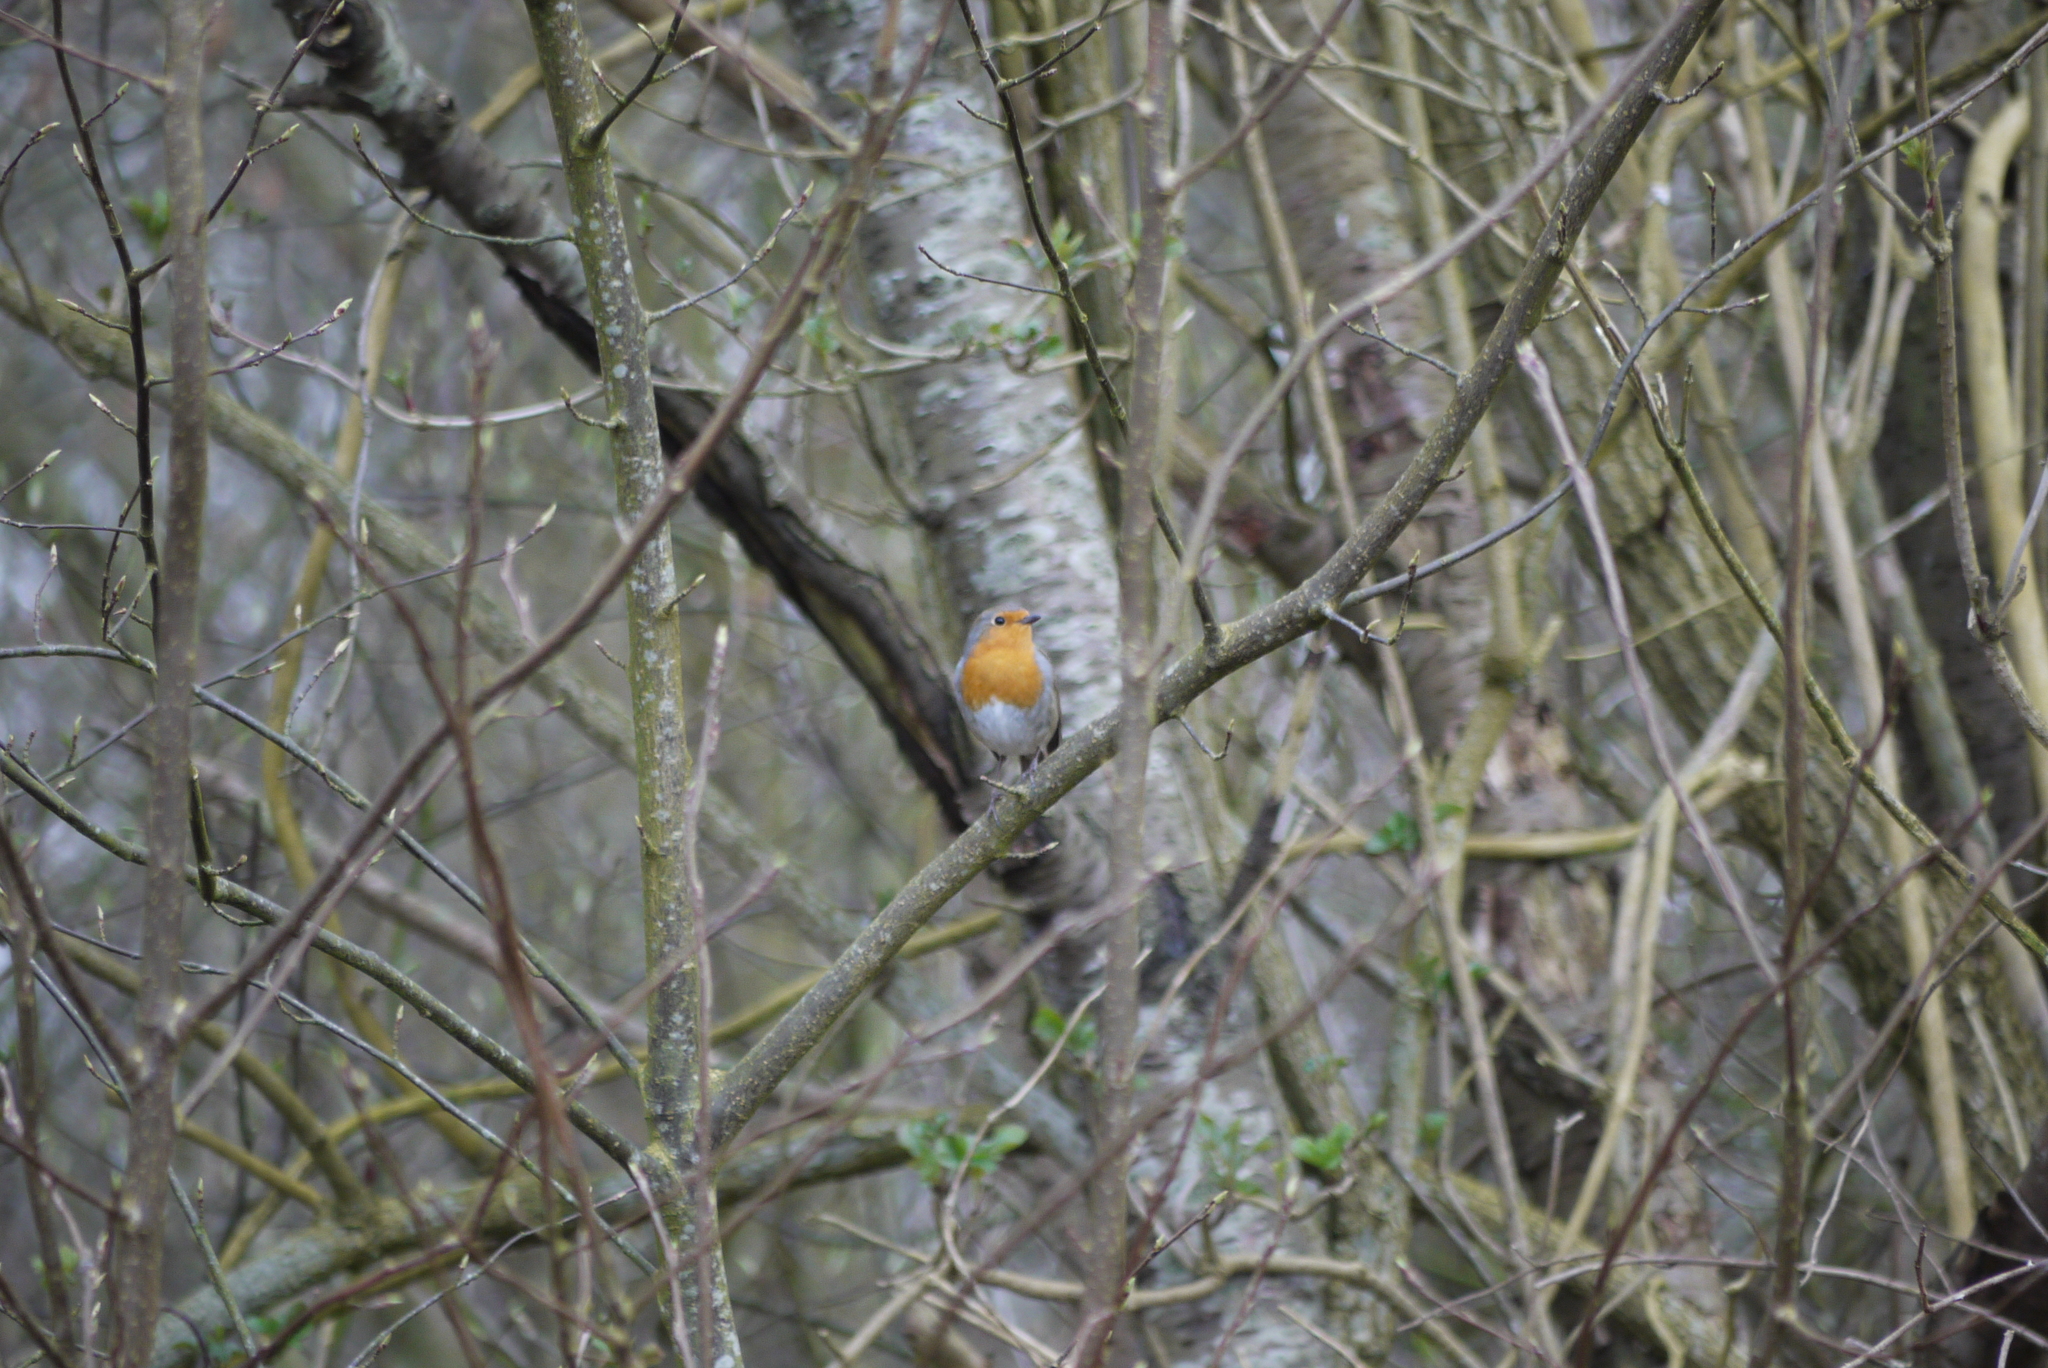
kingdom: Animalia
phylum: Chordata
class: Aves
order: Passeriformes
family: Muscicapidae
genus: Erithacus
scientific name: Erithacus rubecula
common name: European robin
